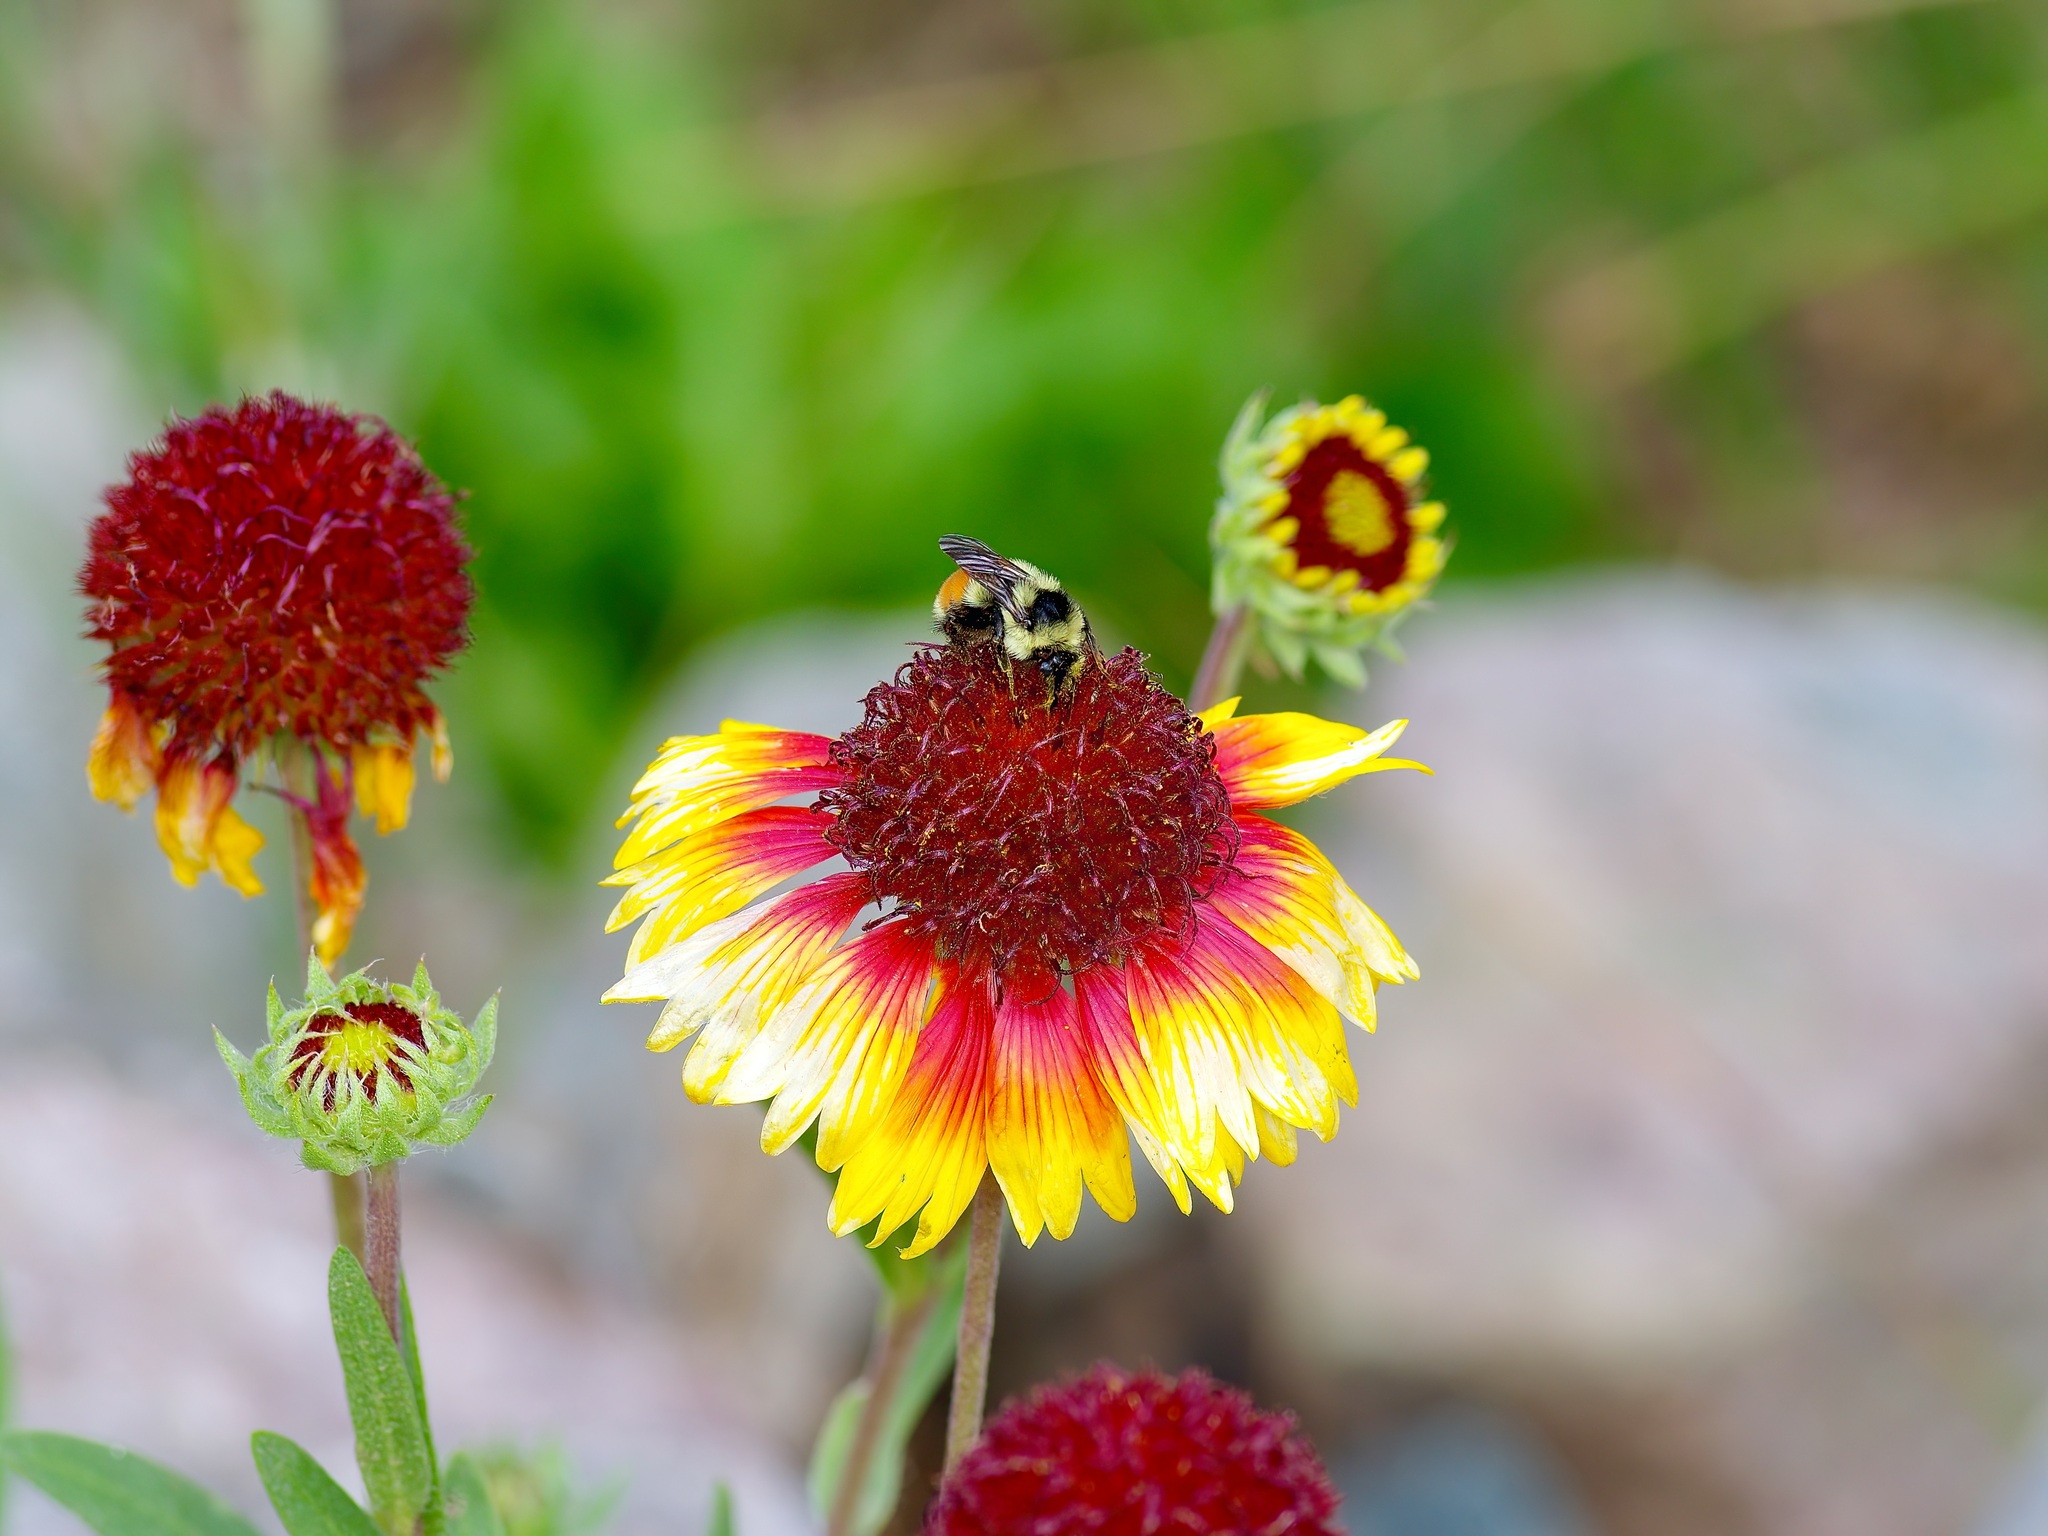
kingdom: Animalia
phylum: Arthropoda
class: Insecta
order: Hymenoptera
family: Apidae
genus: Bombus
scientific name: Bombus bifarius
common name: Two form bumble bee
